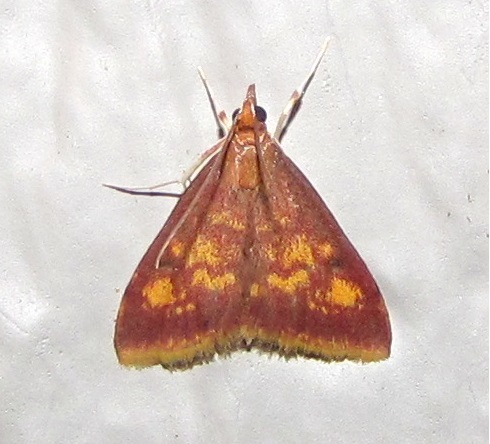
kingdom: Animalia
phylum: Arthropoda
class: Insecta
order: Lepidoptera
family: Crambidae
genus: Pyrausta
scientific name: Pyrausta acrionalis
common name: Mint-loving pyrausta moth
